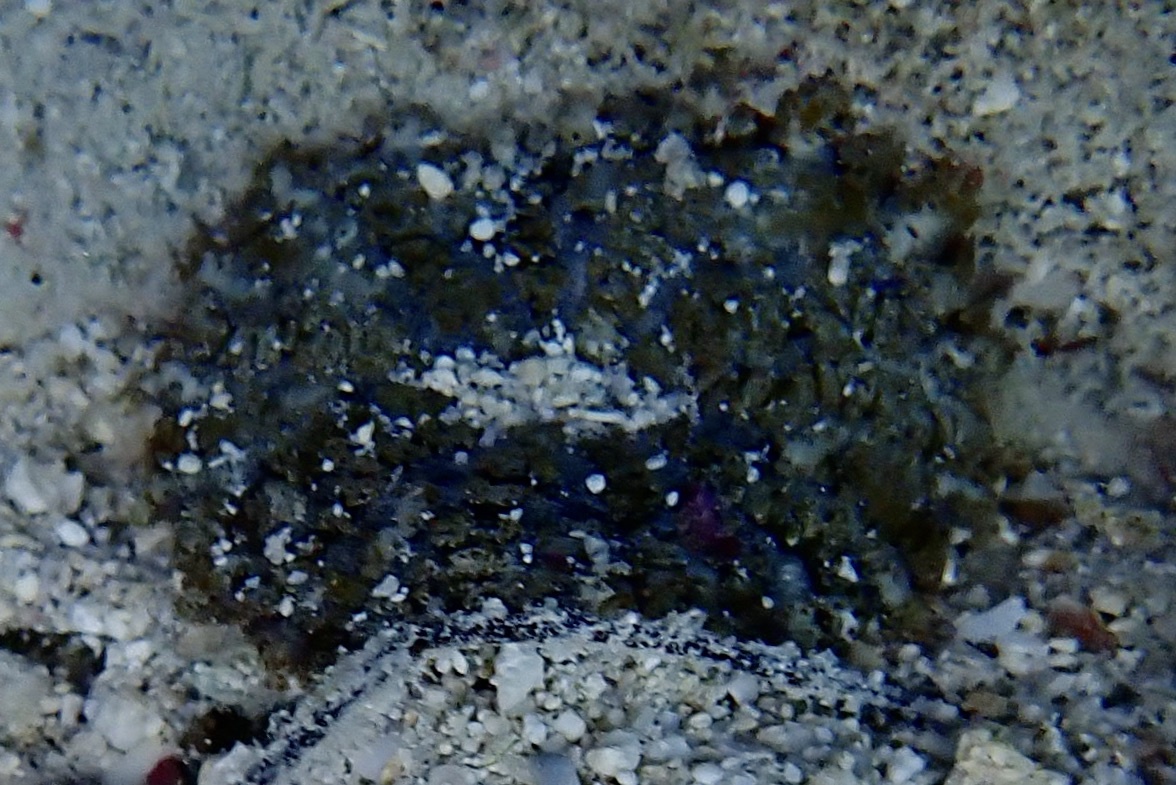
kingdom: Animalia
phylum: Cnidaria
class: Anthozoa
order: Actiniaria
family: Actiniidae
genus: Actinostella
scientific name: Actinostella flosculifera
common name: Collared sand anemone
